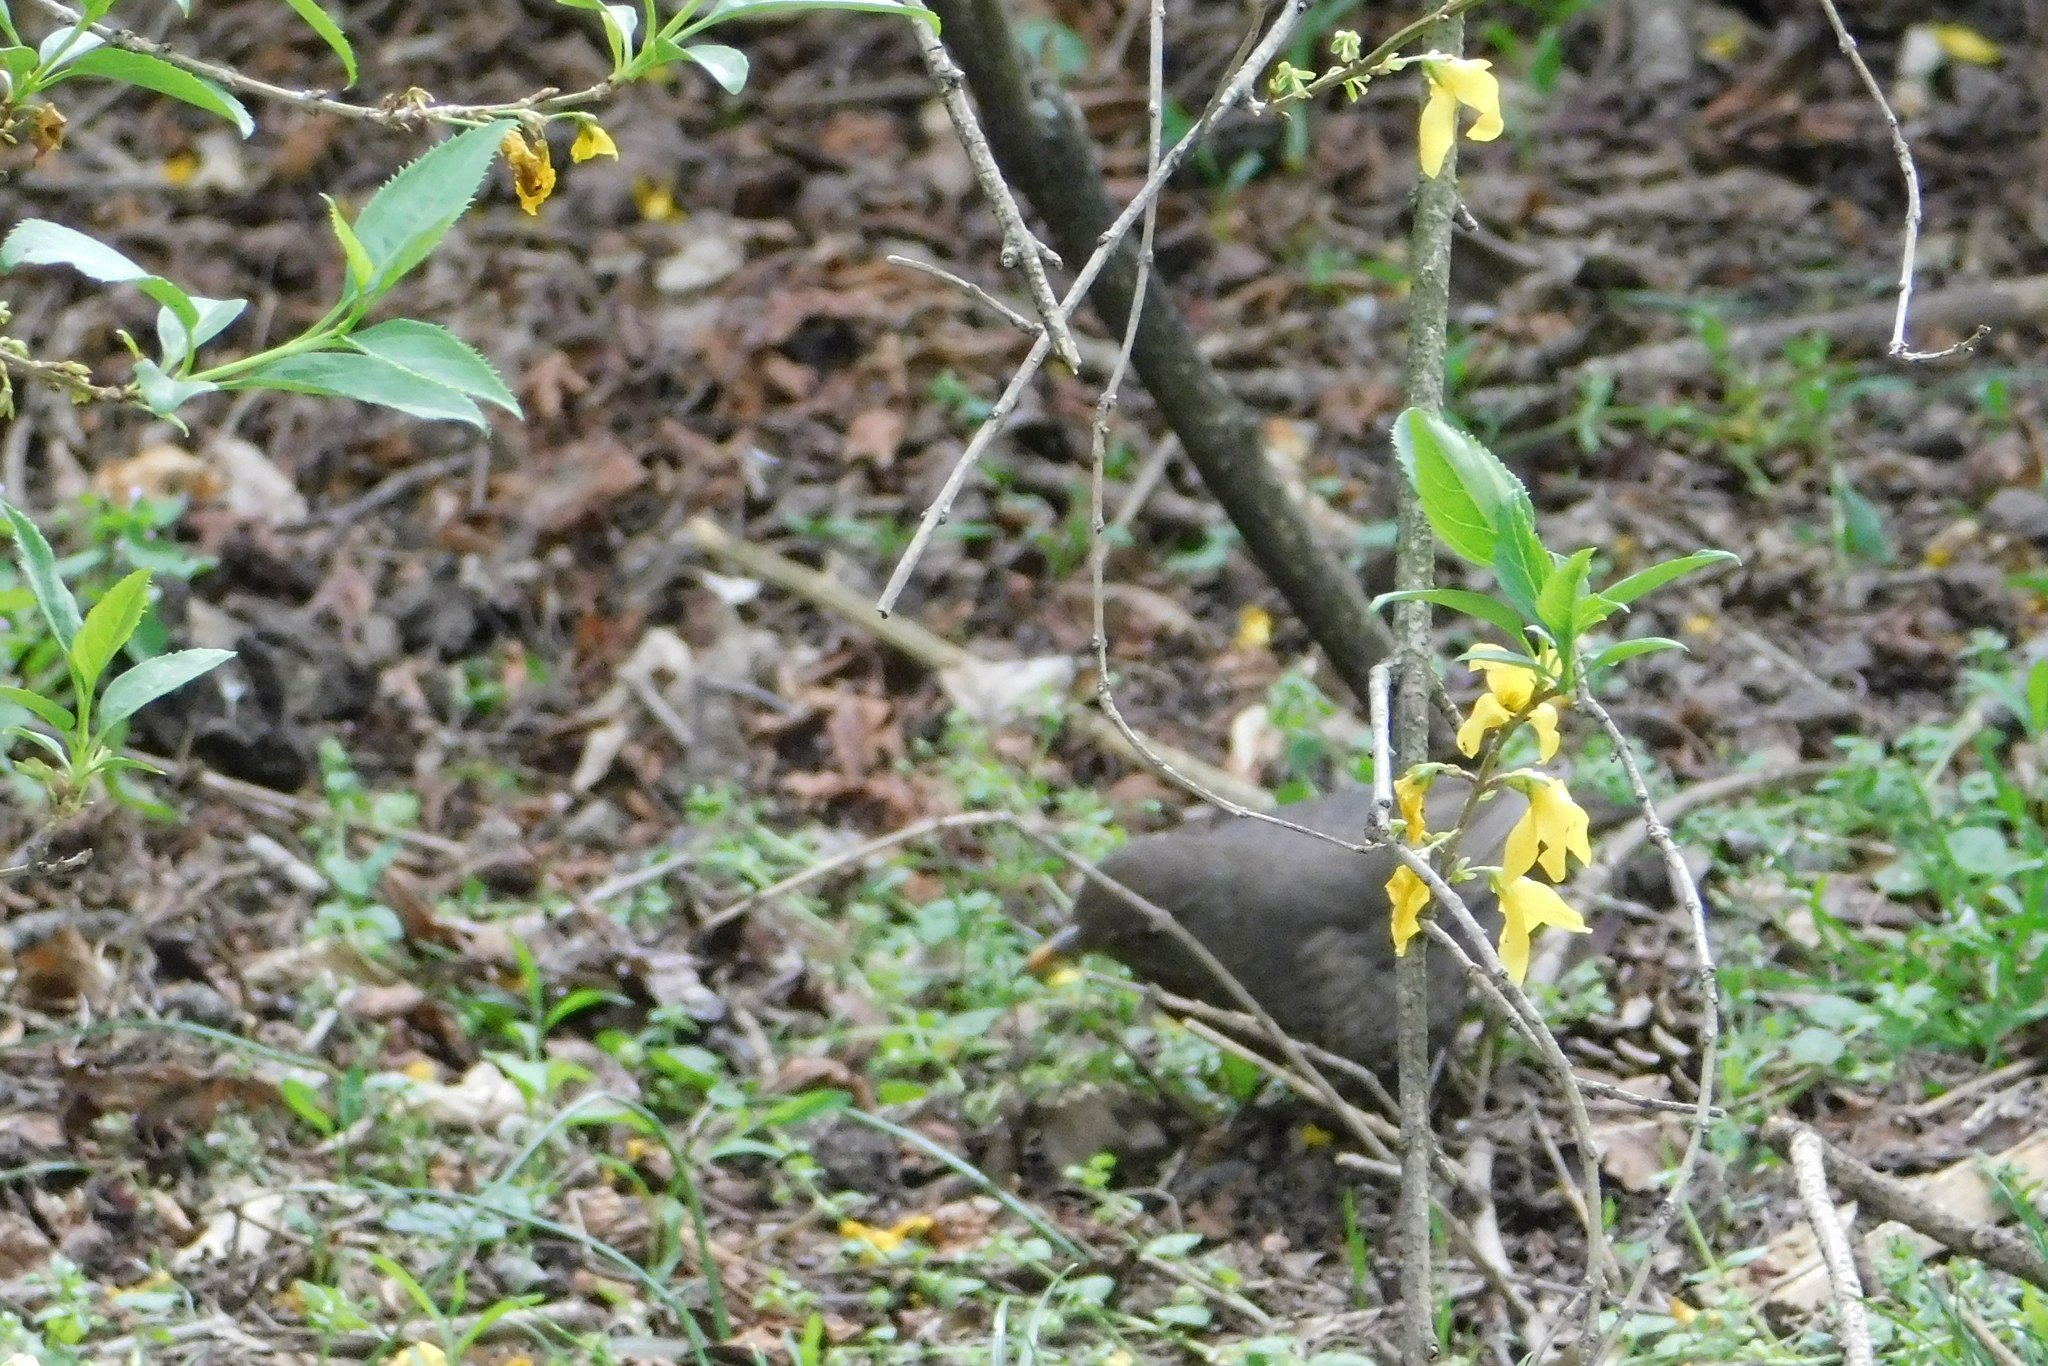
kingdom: Animalia
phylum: Chordata
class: Aves
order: Passeriformes
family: Turdidae
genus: Turdus
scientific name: Turdus merula
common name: Common blackbird
